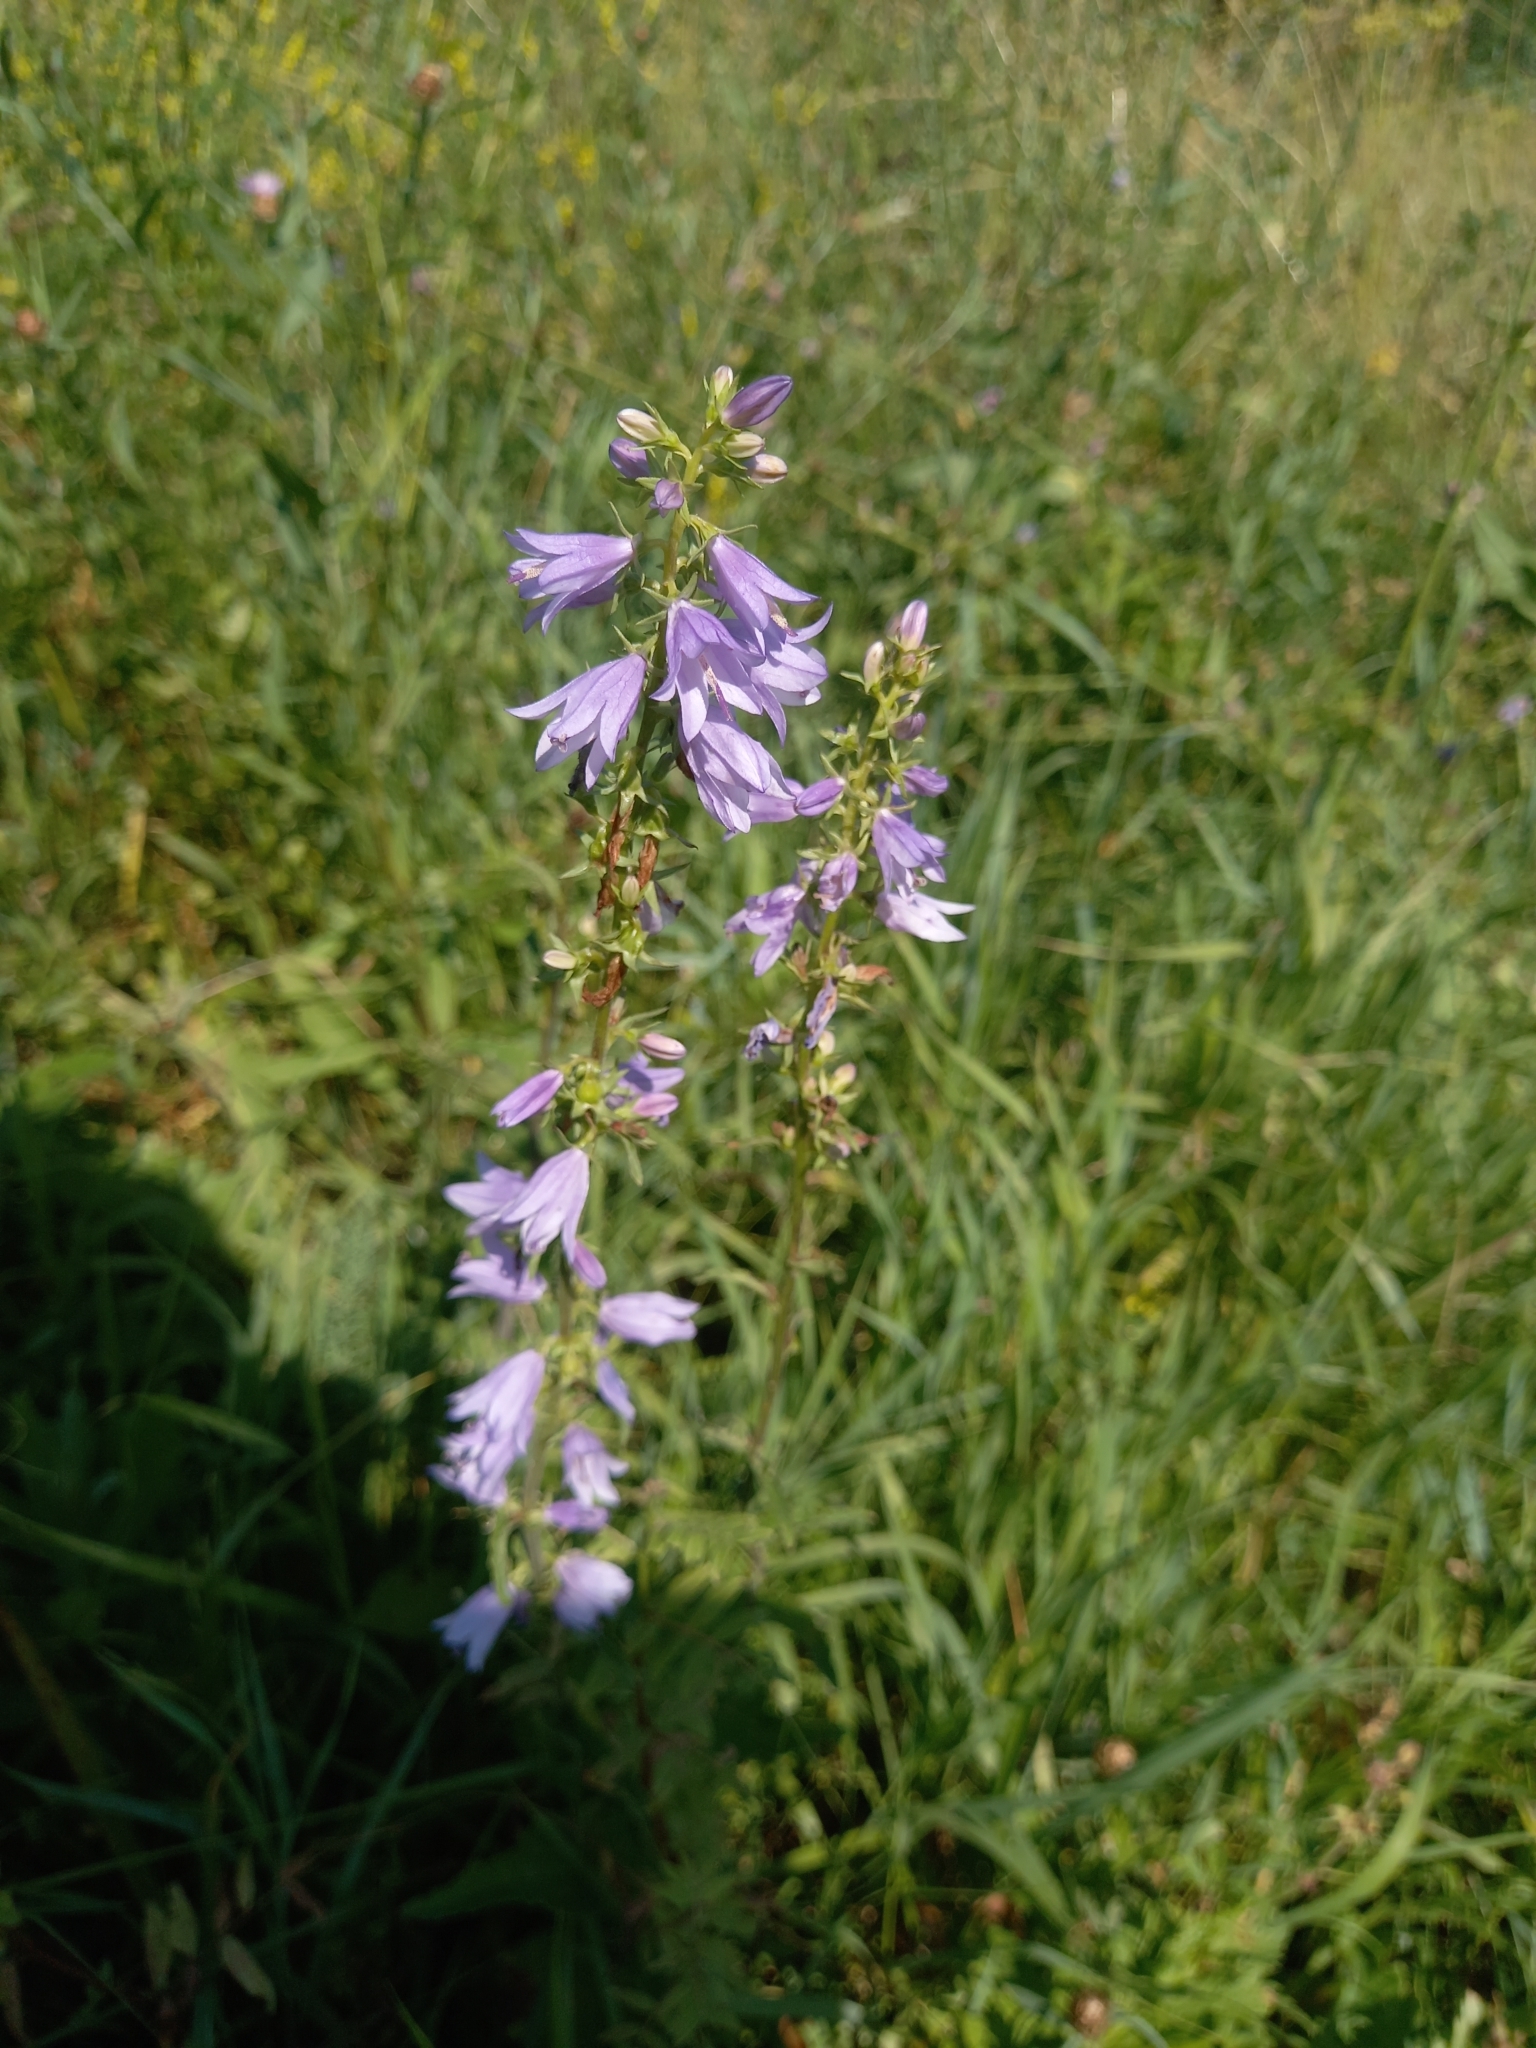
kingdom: Plantae
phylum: Tracheophyta
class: Magnoliopsida
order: Asterales
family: Campanulaceae
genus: Campanula
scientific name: Campanula bononiensis
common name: Pale bellflower
